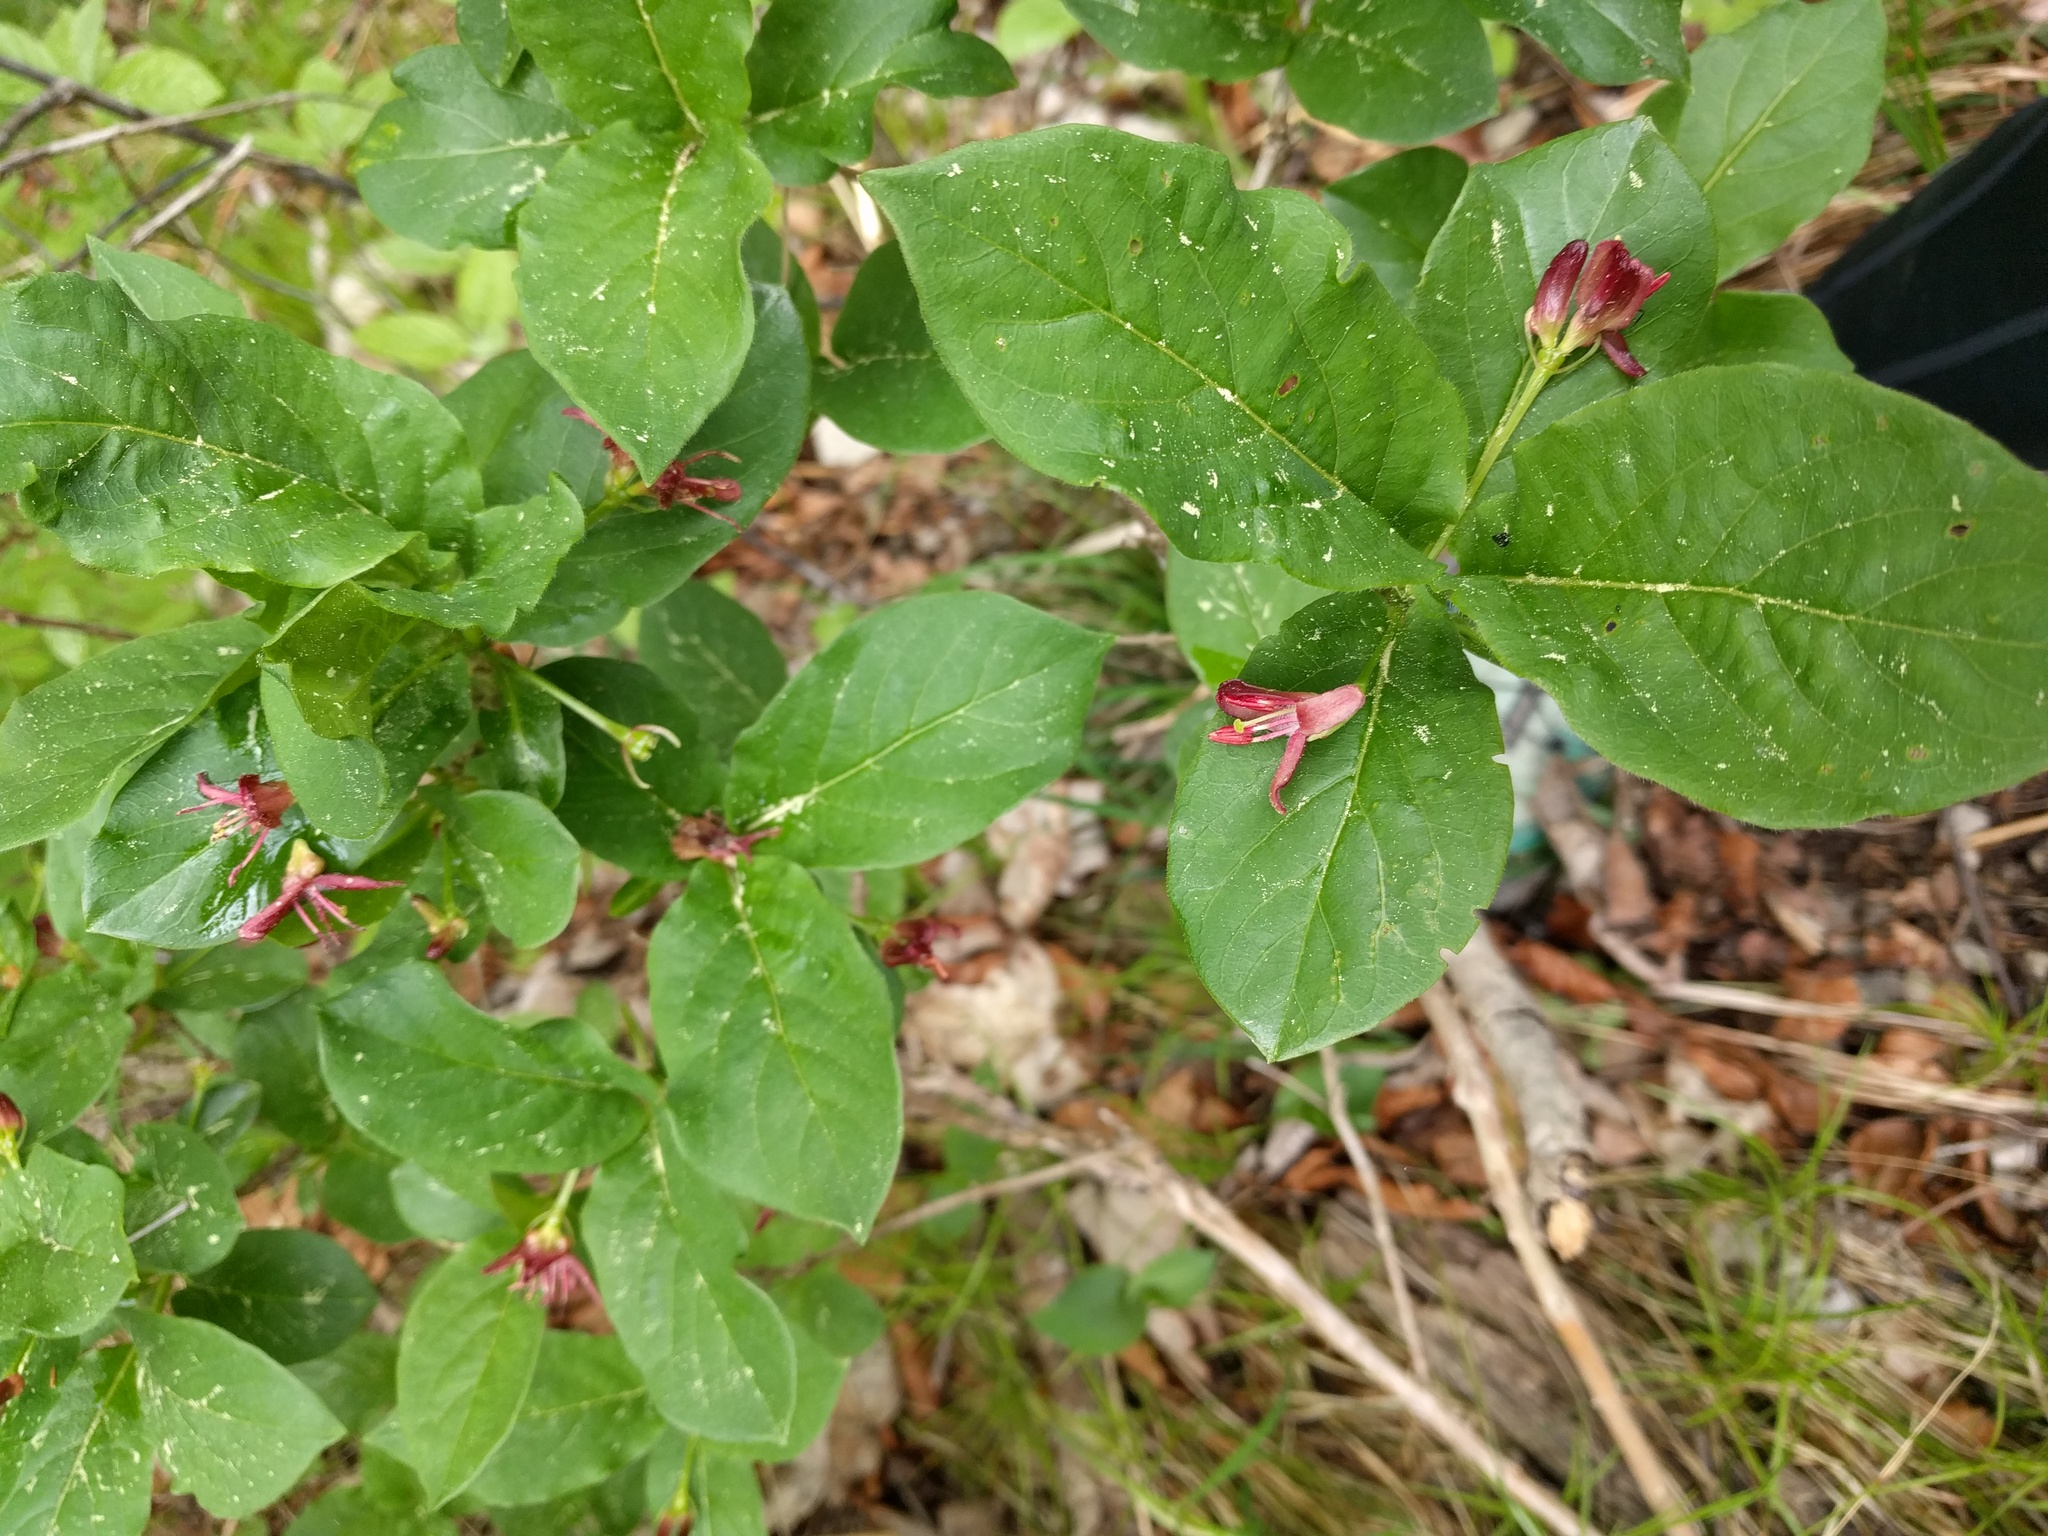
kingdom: Plantae
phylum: Tracheophyta
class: Magnoliopsida
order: Dipsacales
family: Caprifoliaceae
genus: Lonicera
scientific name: Lonicera alpigena
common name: Alpine honeysuckle
